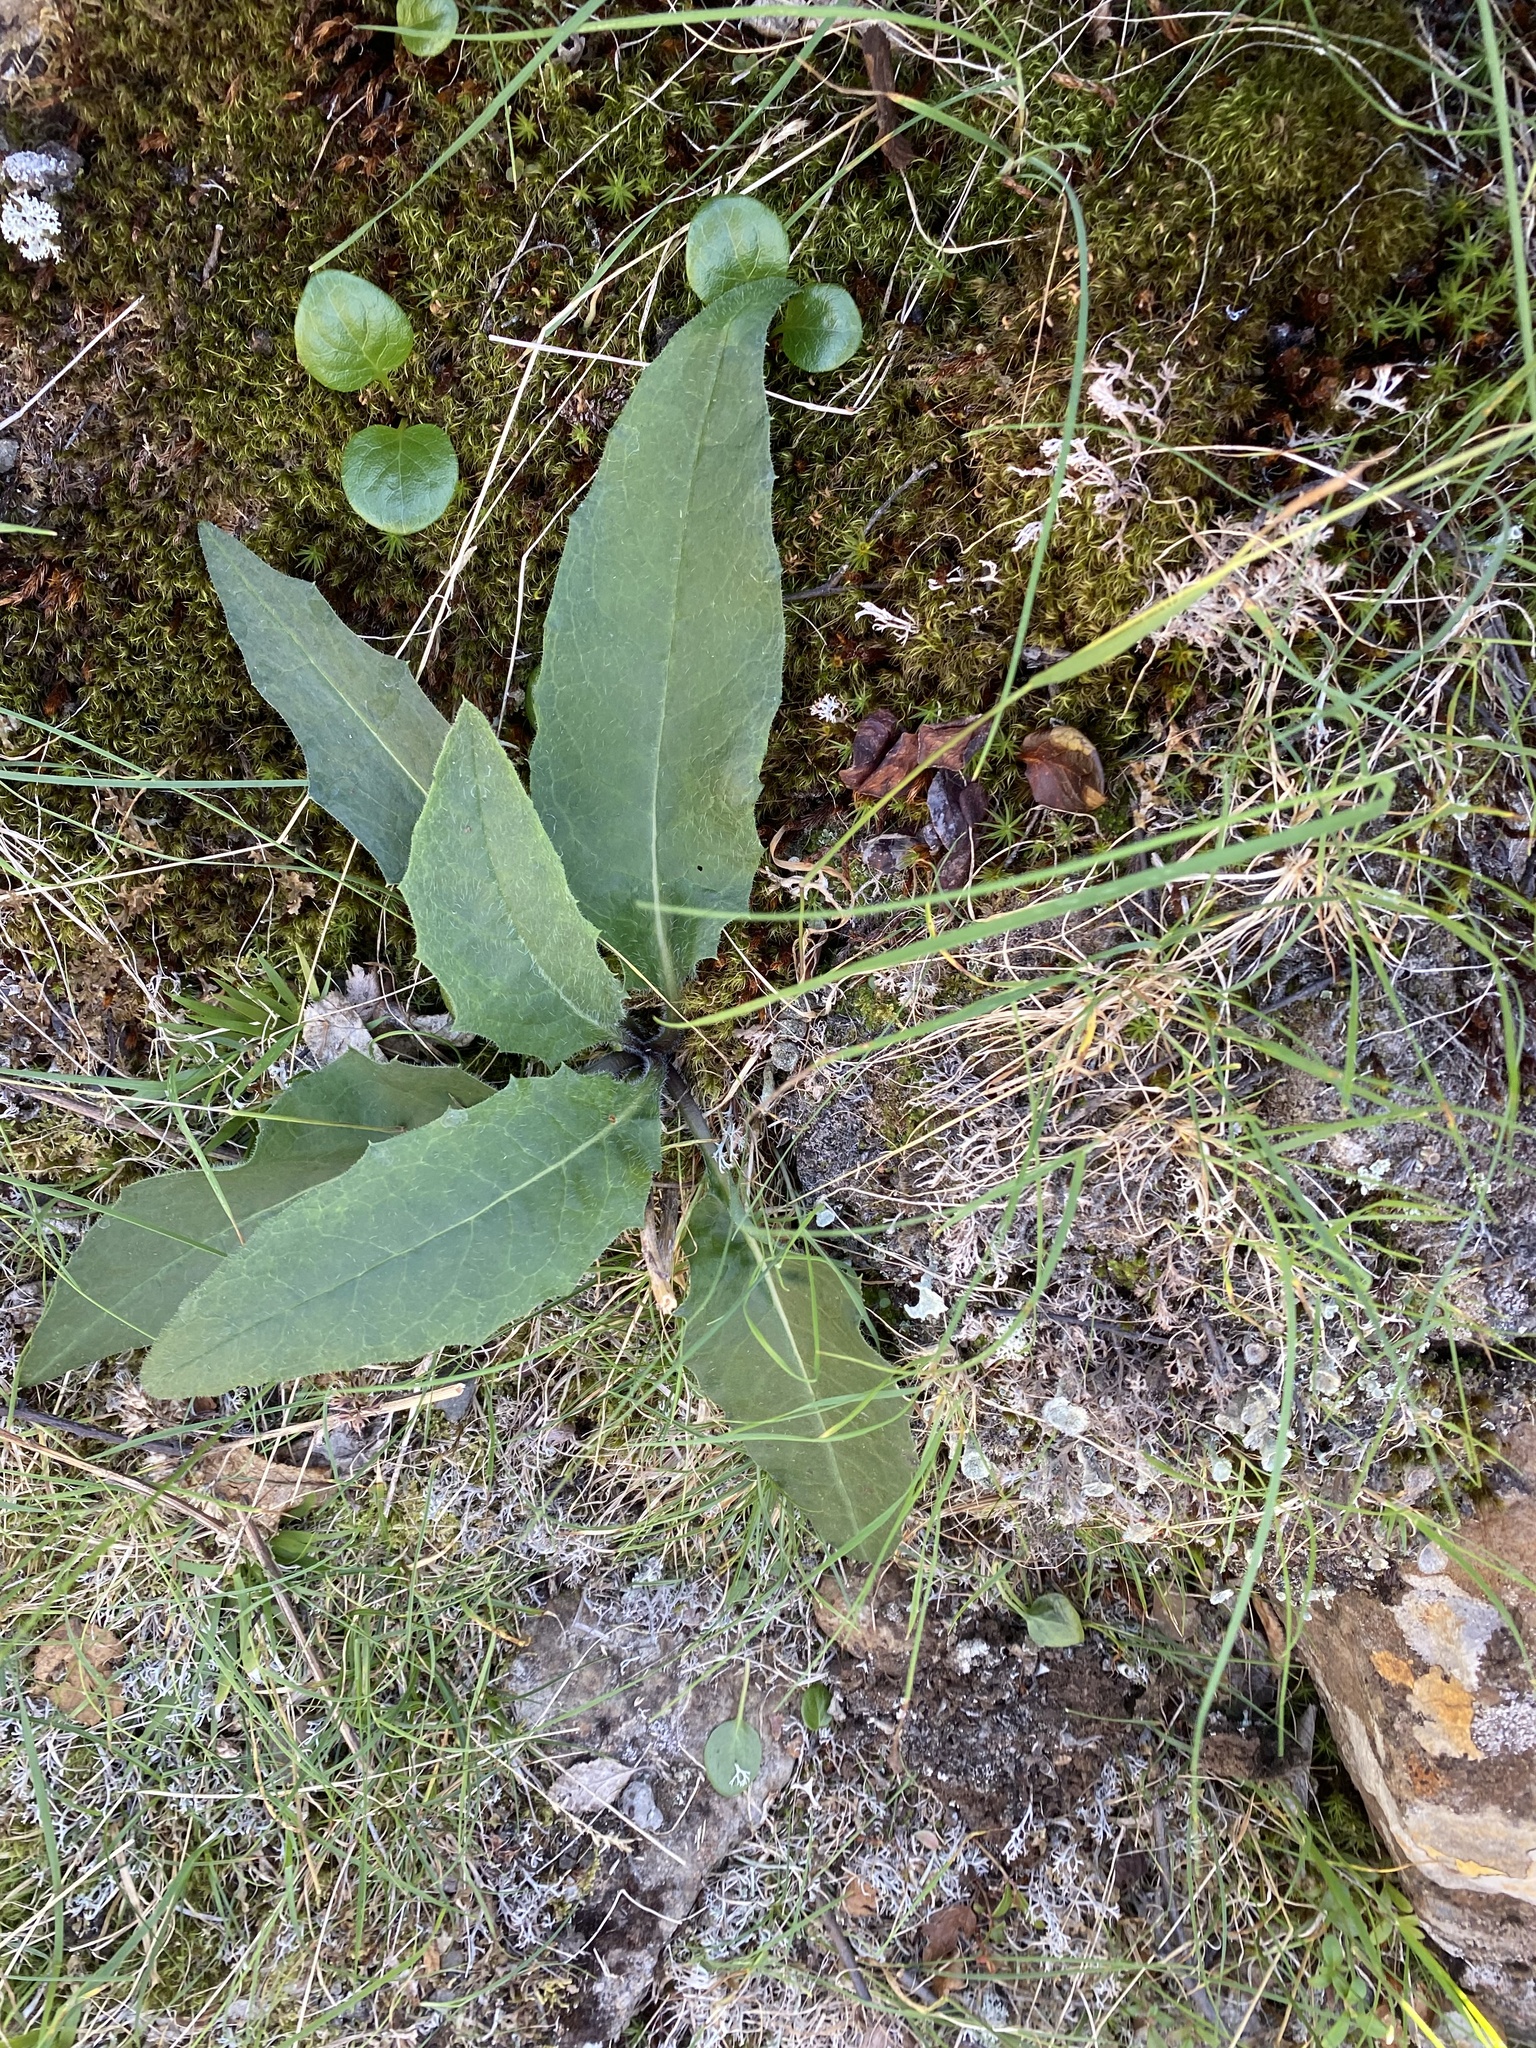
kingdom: Plantae
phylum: Tracheophyta
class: Magnoliopsida
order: Asterales
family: Asteraceae
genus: Saussurea
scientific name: Saussurea denticulata
